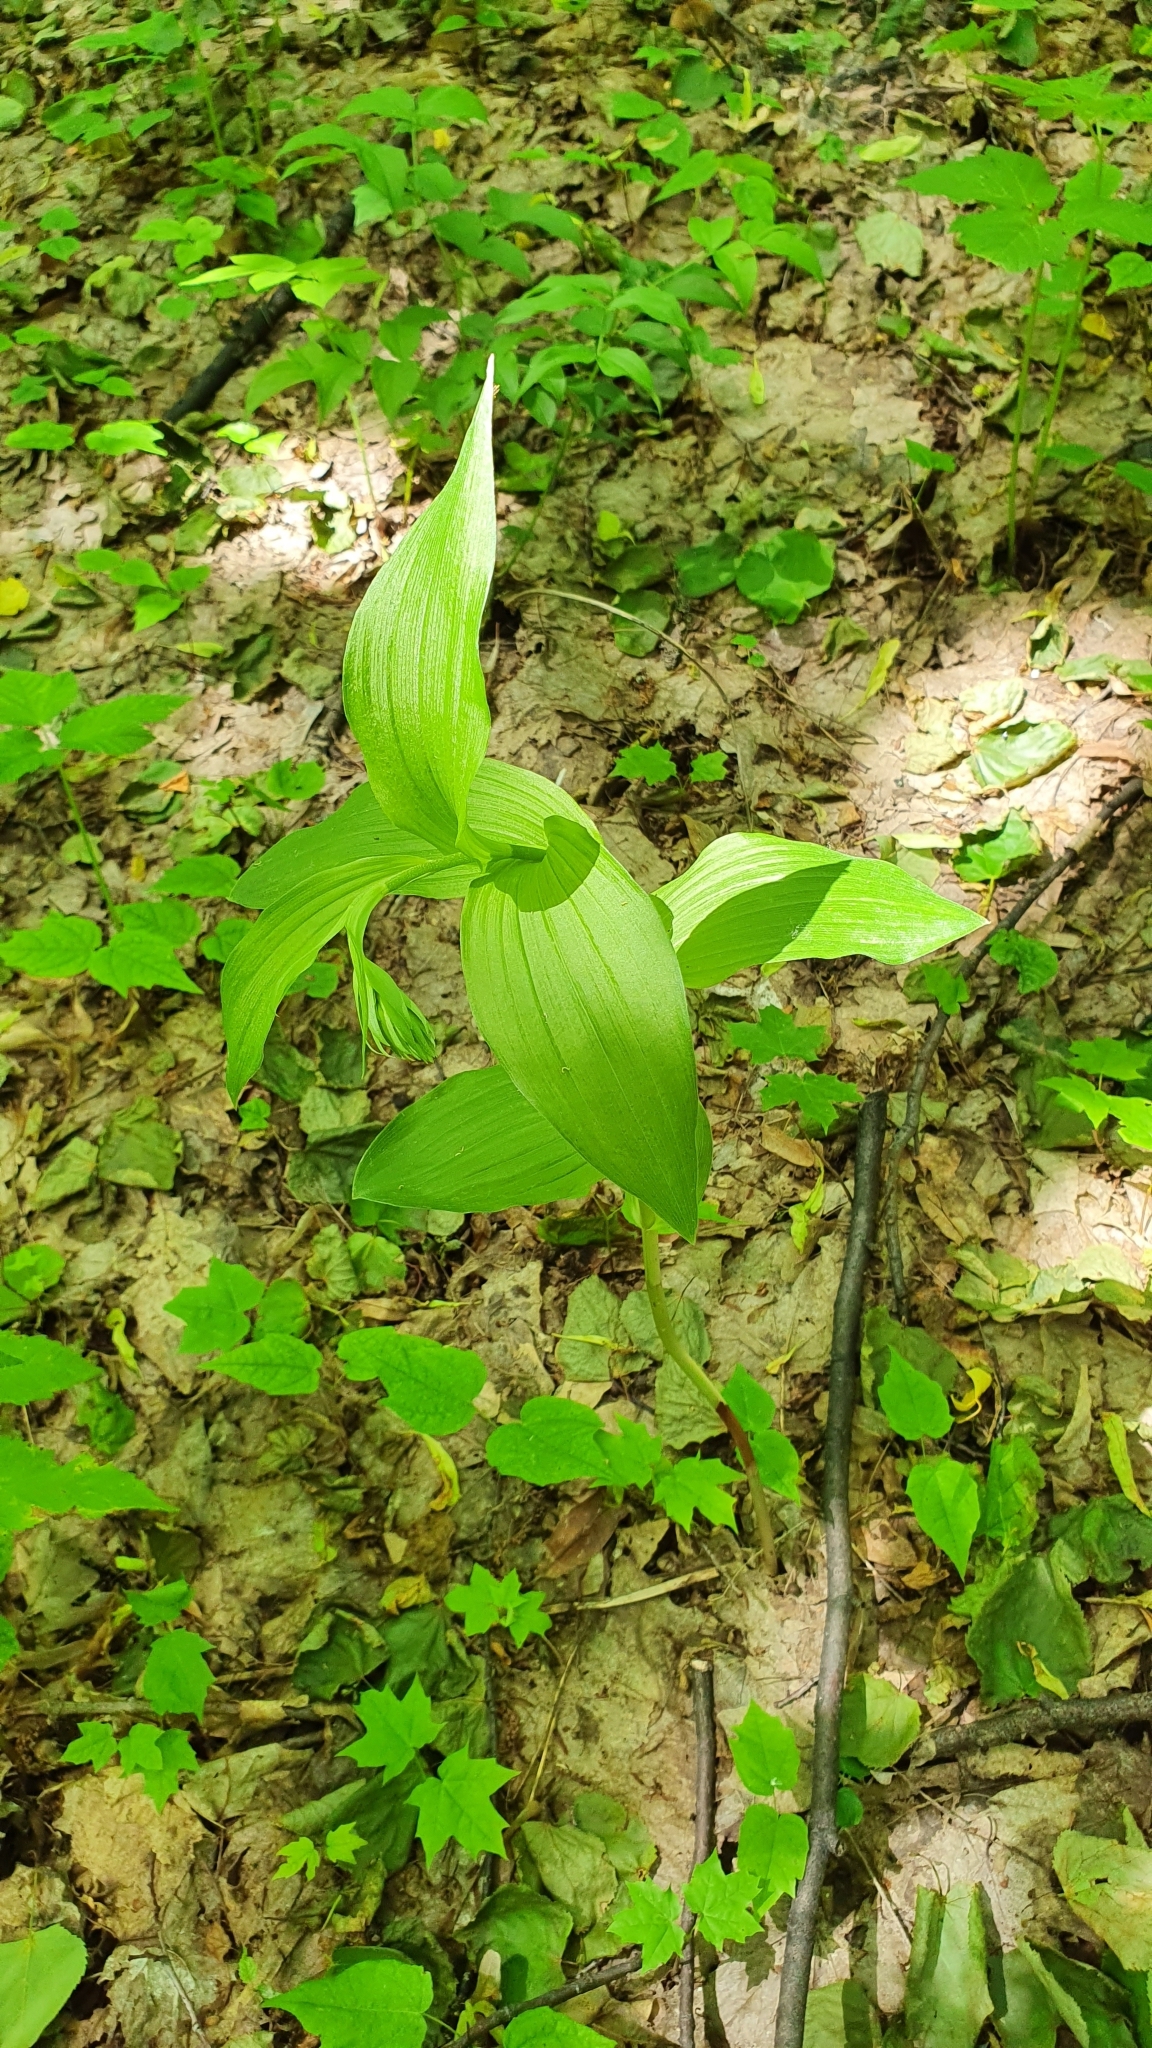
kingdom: Plantae
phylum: Tracheophyta
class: Liliopsida
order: Asparagales
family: Orchidaceae
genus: Epipactis
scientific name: Epipactis helleborine
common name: Broad-leaved helleborine
